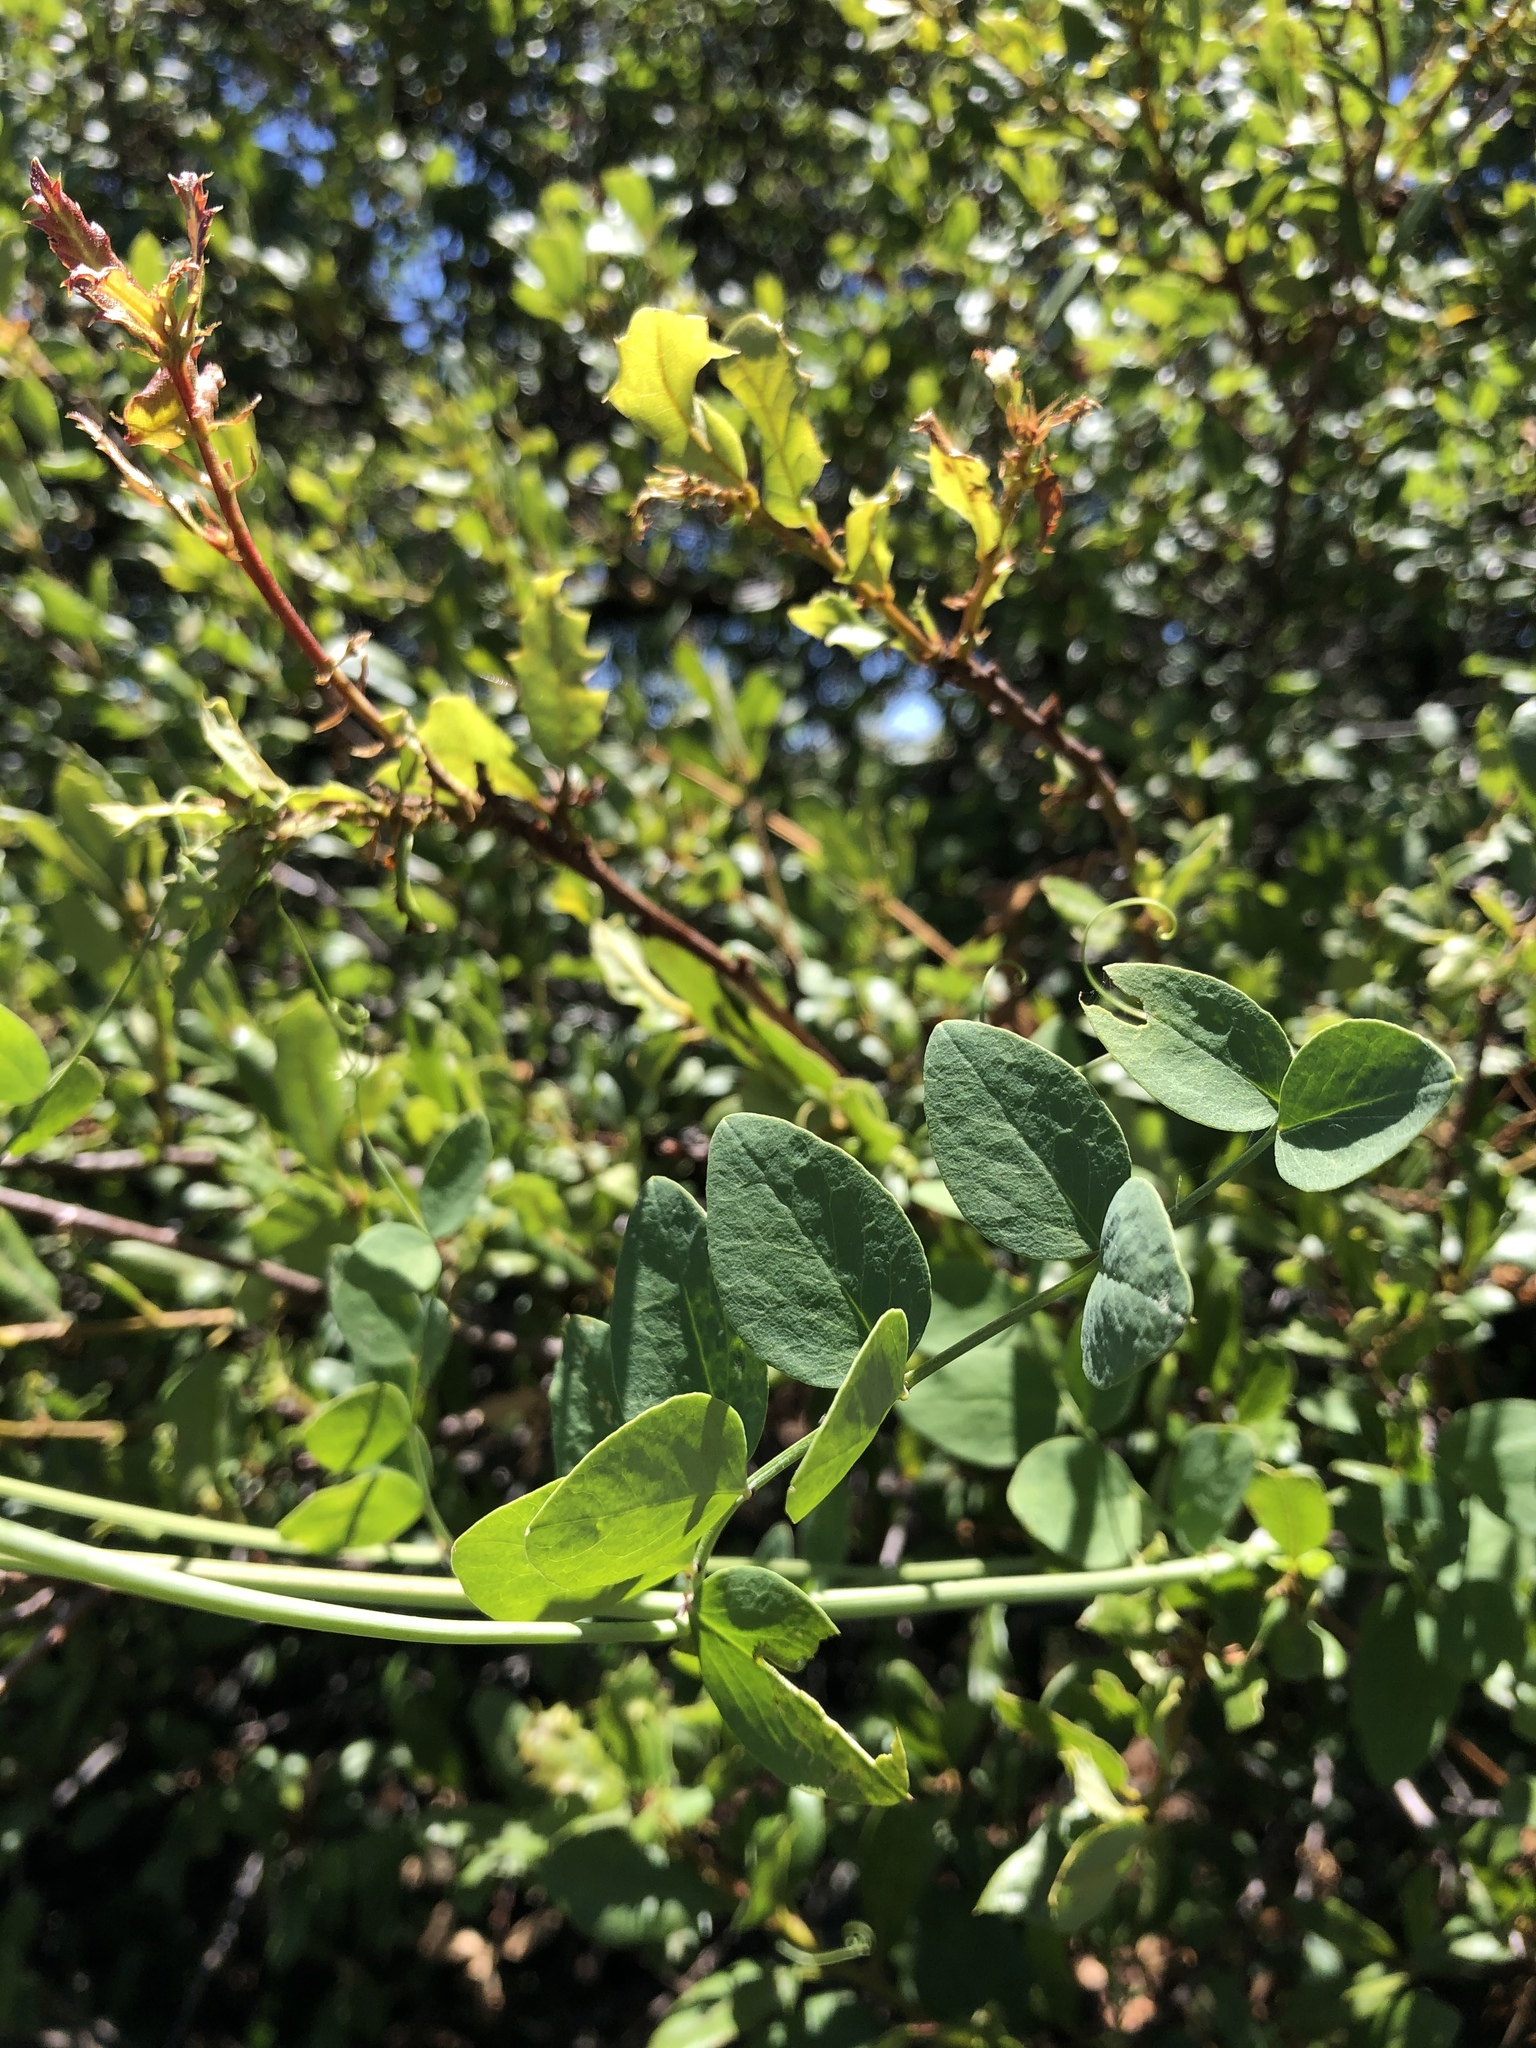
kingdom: Plantae
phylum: Tracheophyta
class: Magnoliopsida
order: Fabales
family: Fabaceae
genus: Lathyrus
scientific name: Lathyrus vestitus
